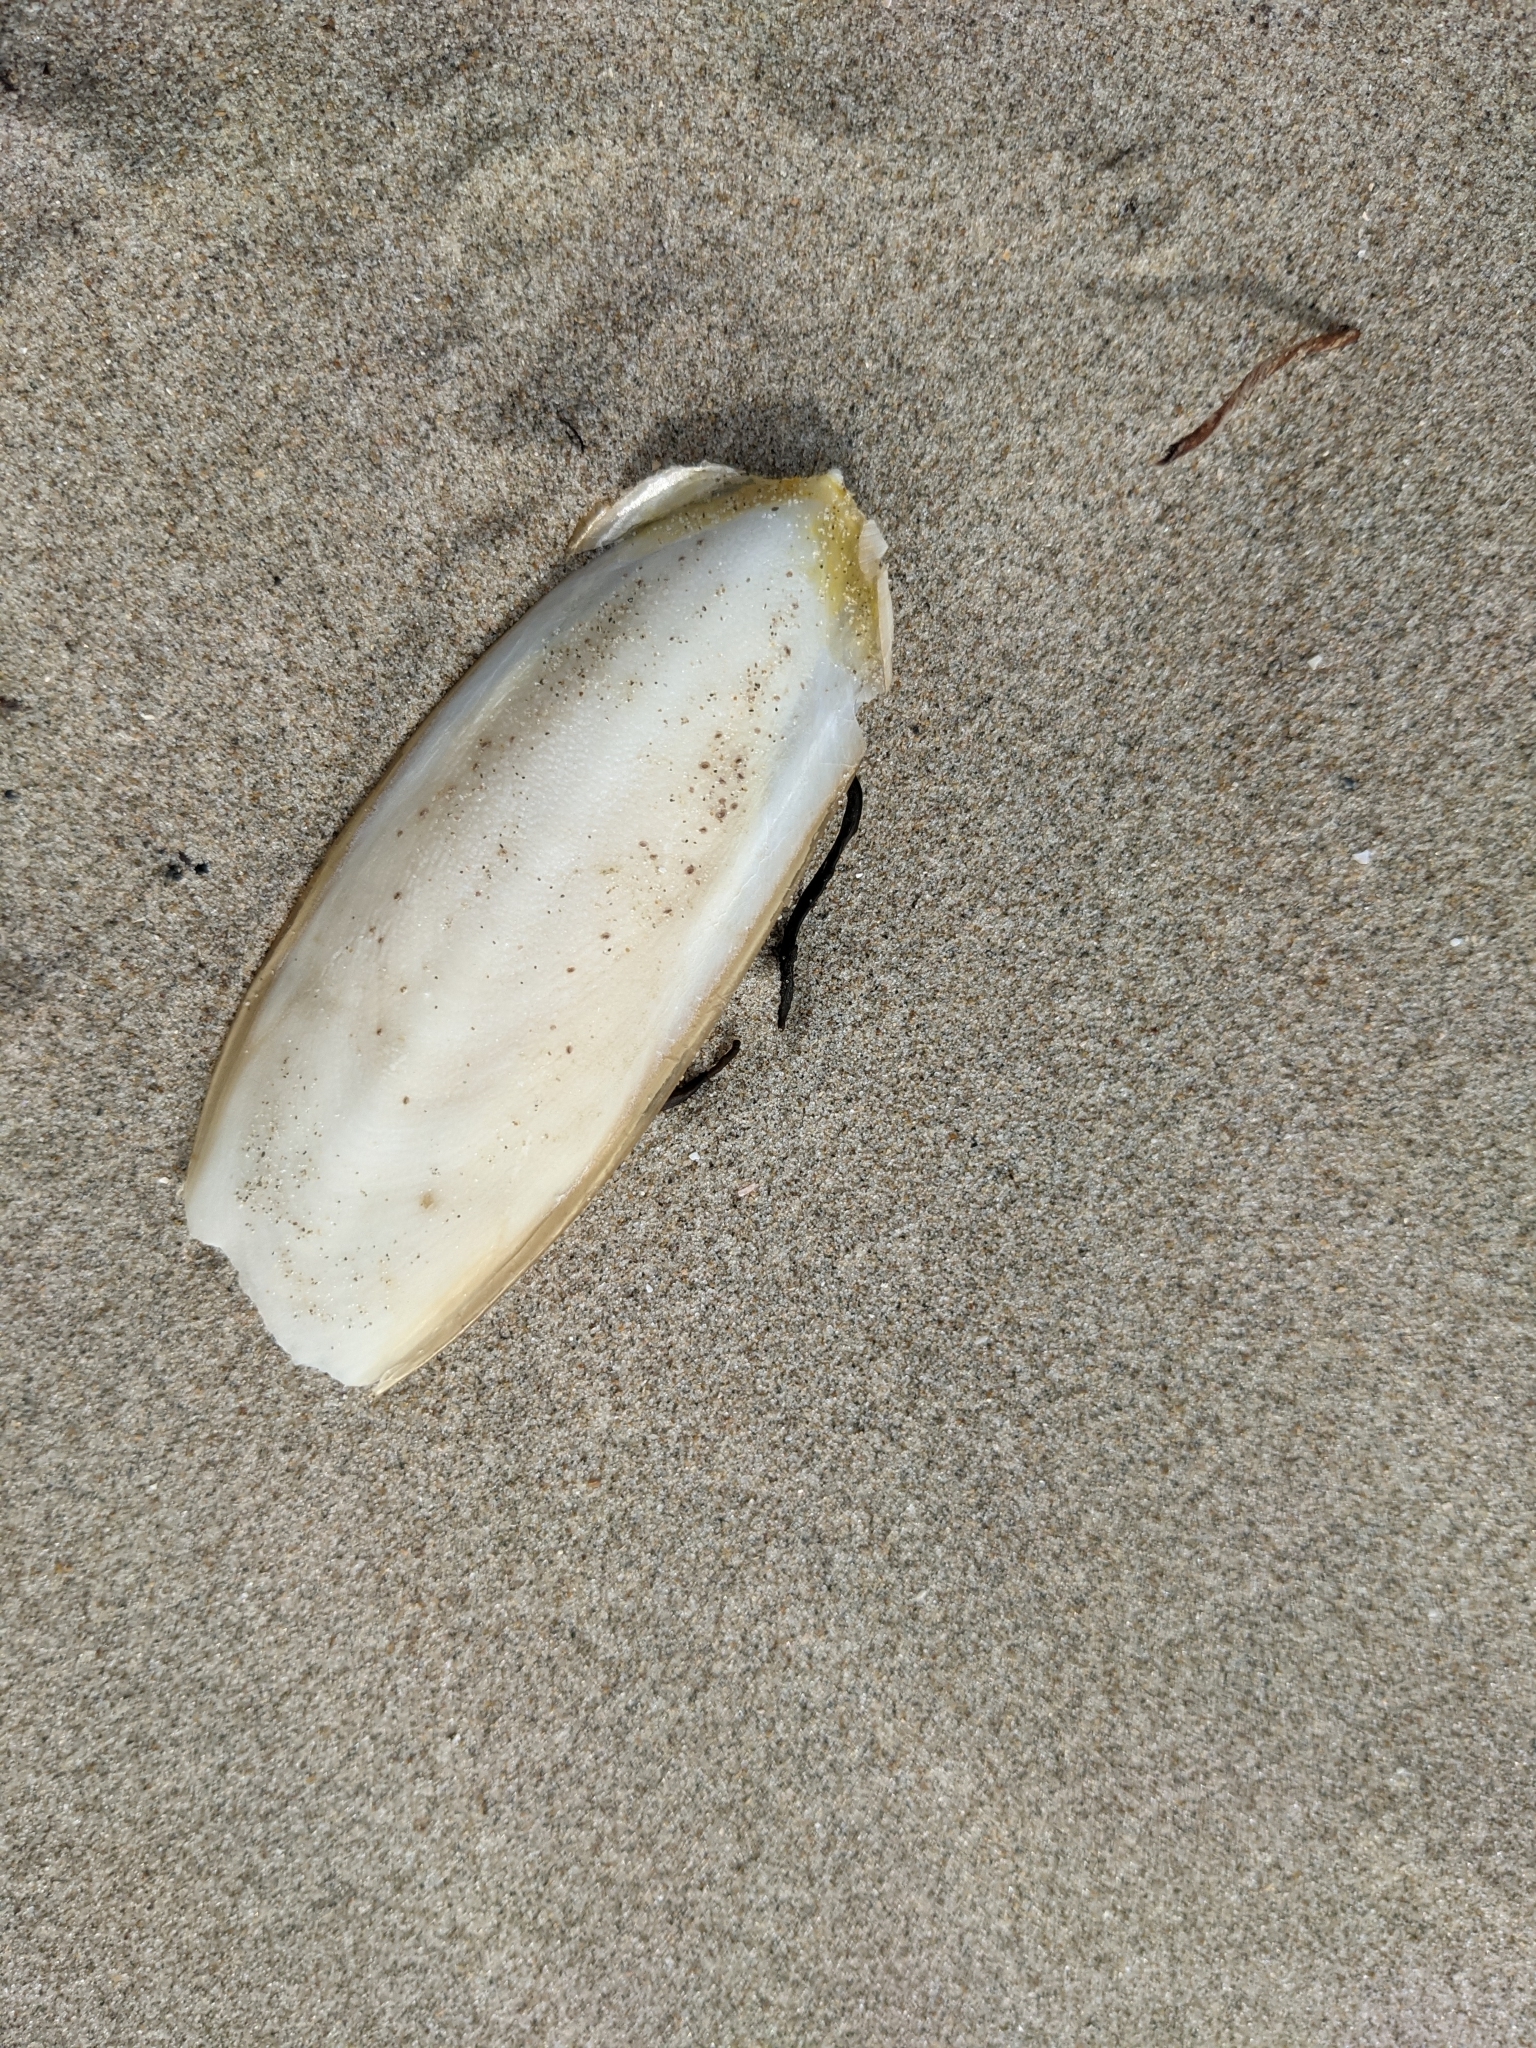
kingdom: Animalia
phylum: Mollusca
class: Cephalopoda
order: Sepiida
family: Sepiidae
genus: Sepia
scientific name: Sepia officinalis
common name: Common cuttlefish
